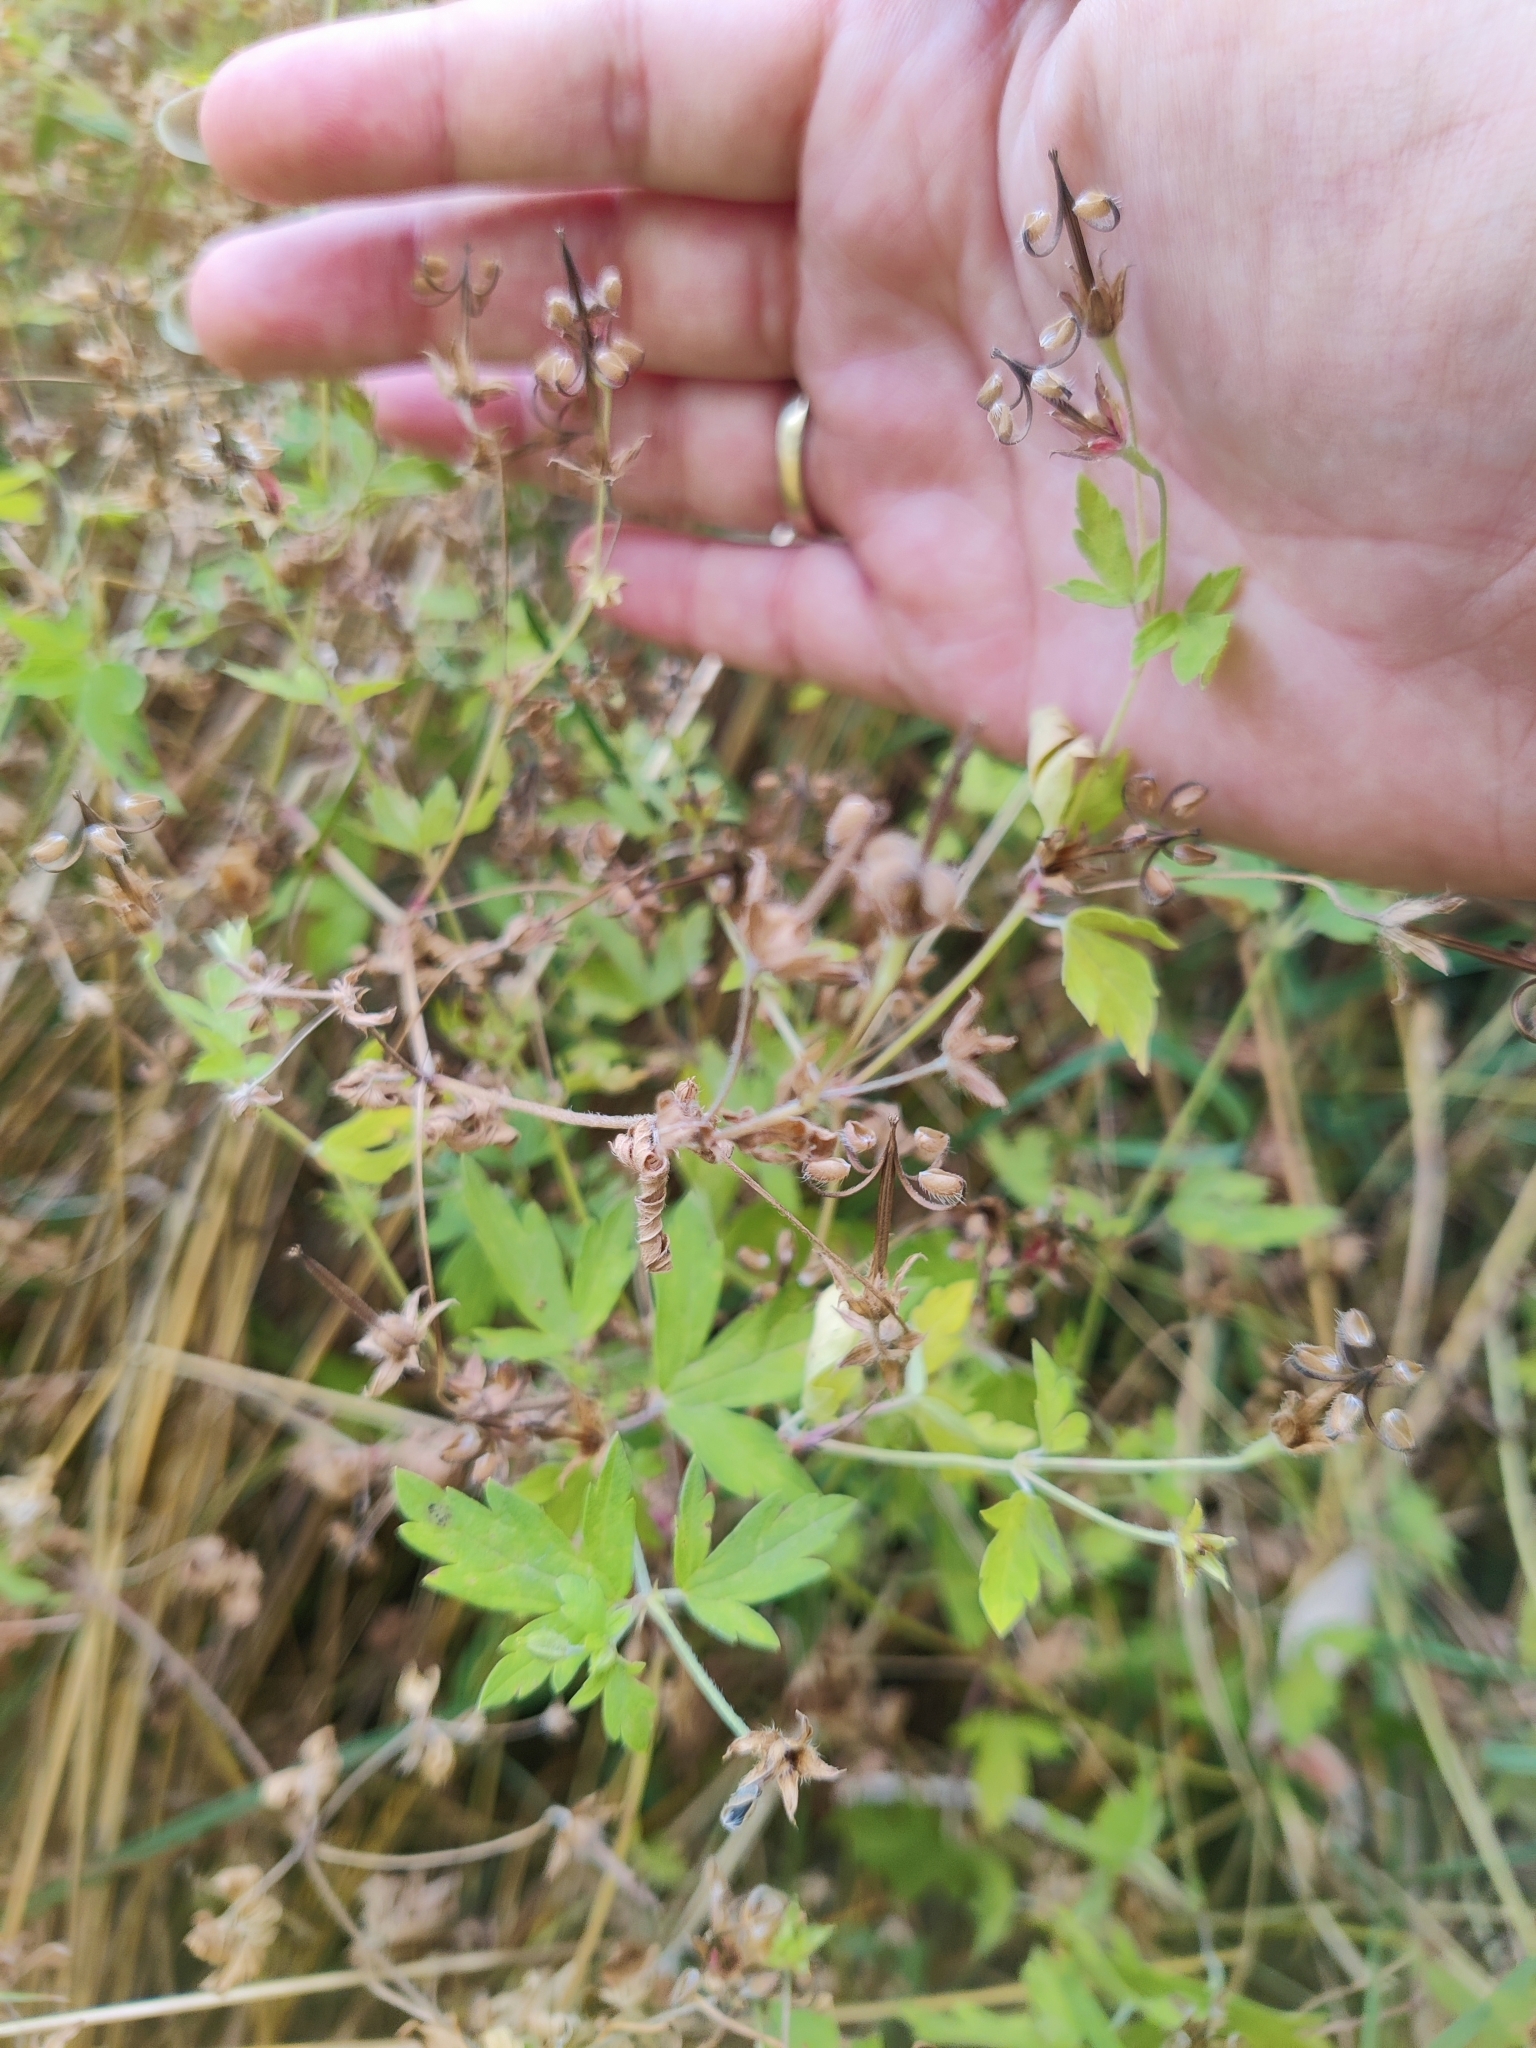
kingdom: Plantae
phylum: Tracheophyta
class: Magnoliopsida
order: Geraniales
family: Geraniaceae
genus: Geranium
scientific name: Geranium sibiricum
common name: Siberian crane's-bill
